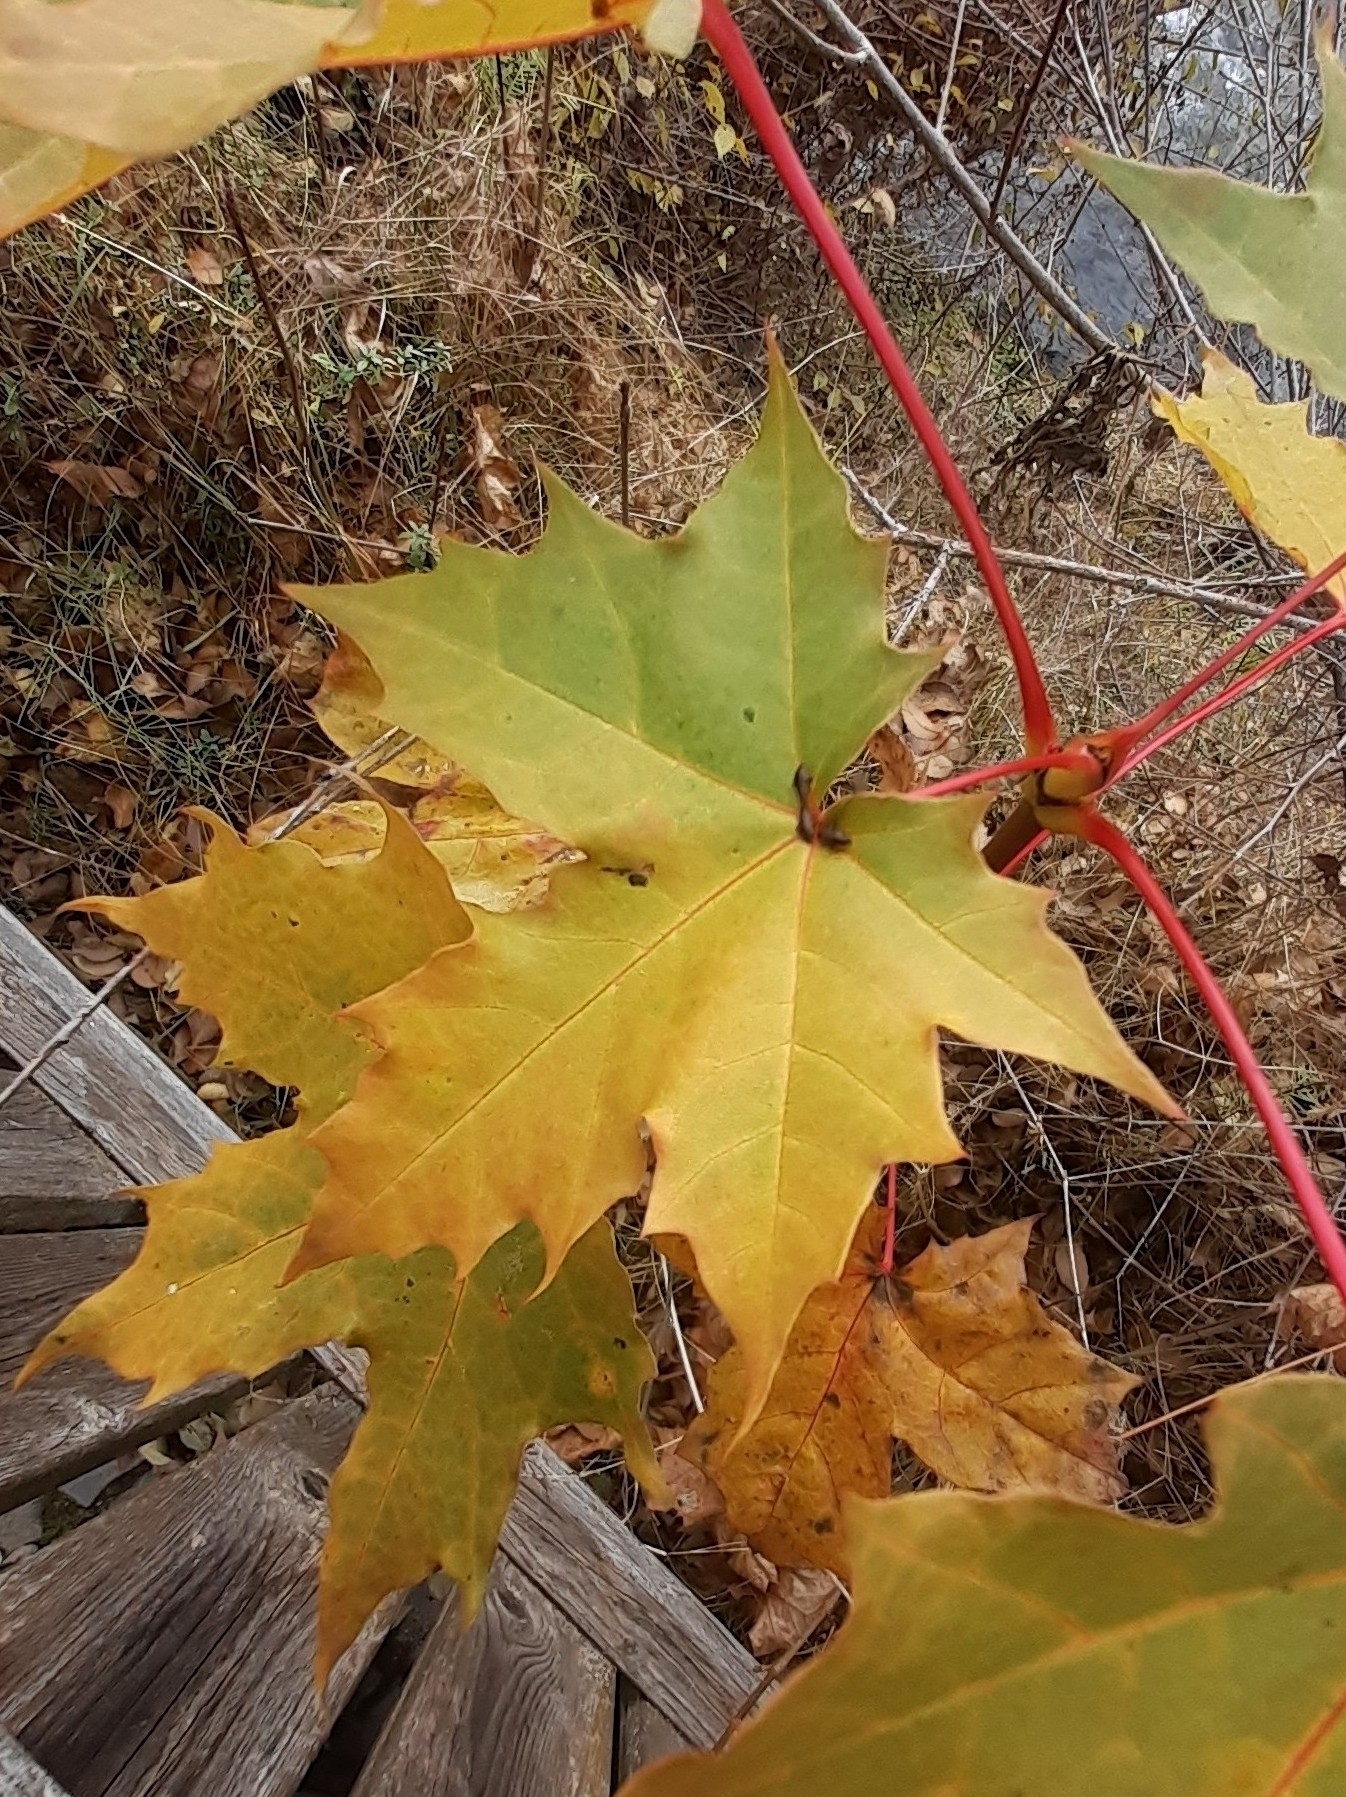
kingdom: Plantae
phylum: Tracheophyta
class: Magnoliopsida
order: Sapindales
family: Sapindaceae
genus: Acer
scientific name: Acer platanoides
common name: Norway maple
